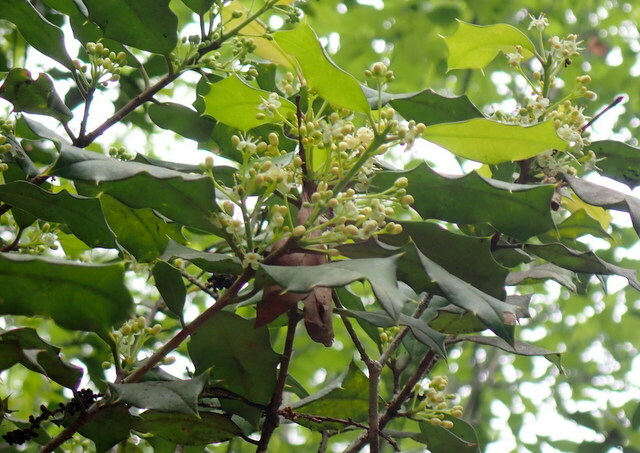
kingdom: Plantae
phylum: Tracheophyta
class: Magnoliopsida
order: Aquifoliales
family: Aquifoliaceae
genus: Ilex
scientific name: Ilex opaca
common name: American holly
